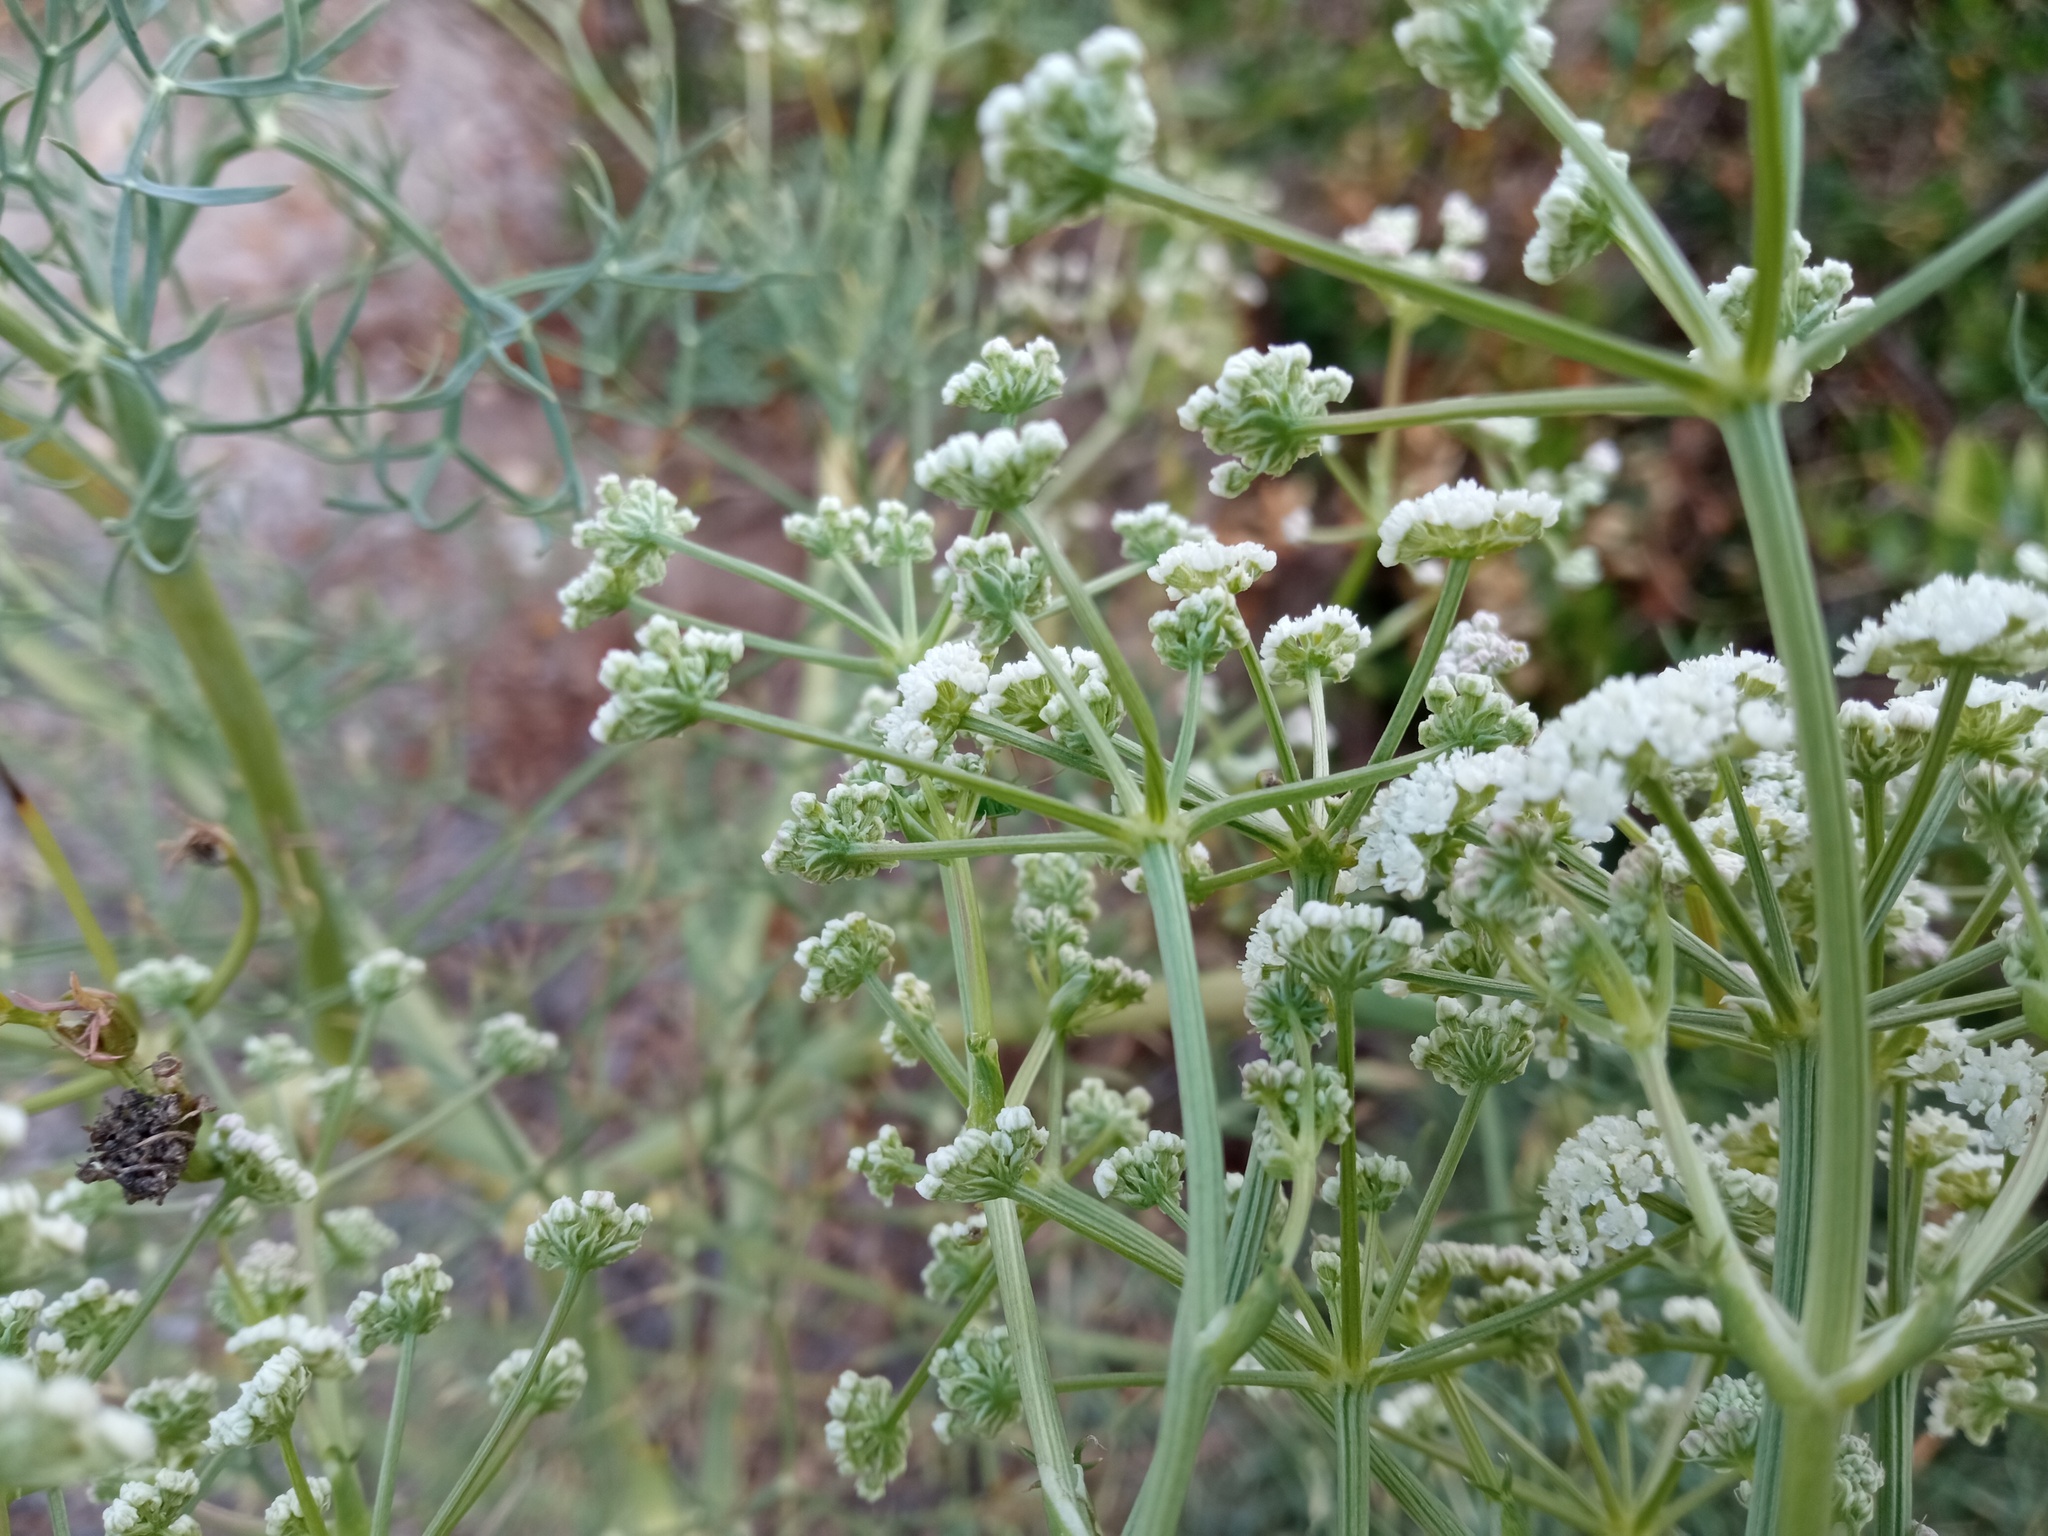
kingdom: Plantae
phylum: Tracheophyta
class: Magnoliopsida
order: Apiales
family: Apiaceae
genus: Seseli
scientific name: Seseli tortuosum
